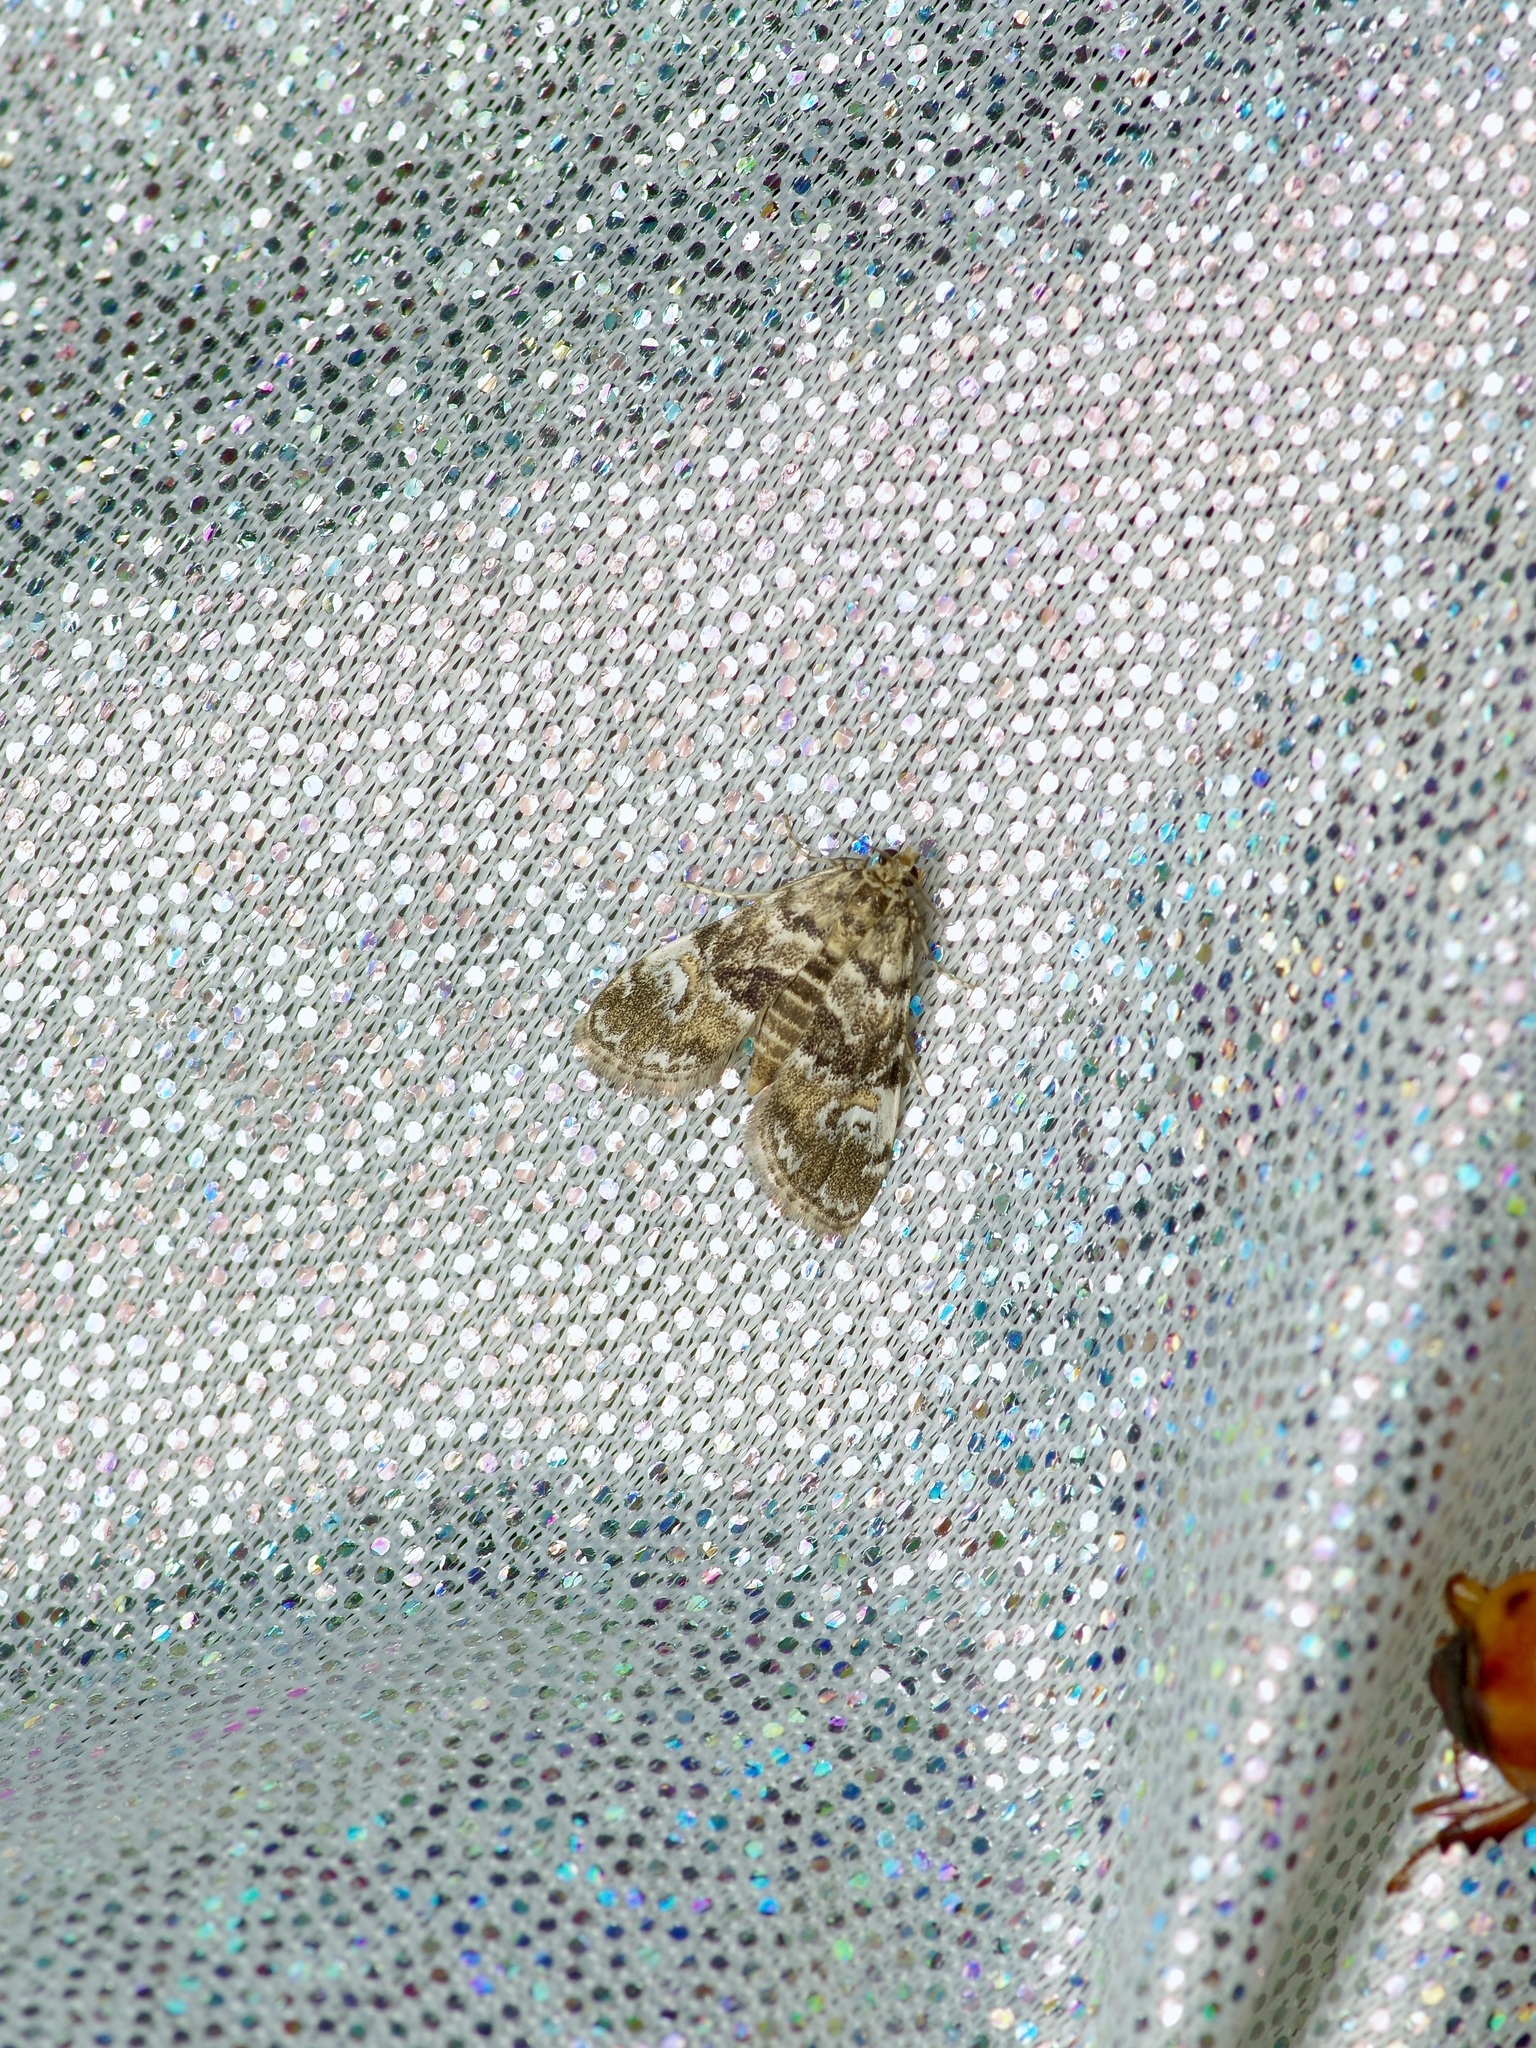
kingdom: Animalia
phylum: Arthropoda
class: Insecta
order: Lepidoptera
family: Crambidae
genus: Elophila
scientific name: Elophila obliteralis
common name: Waterlily leafcutter moth
